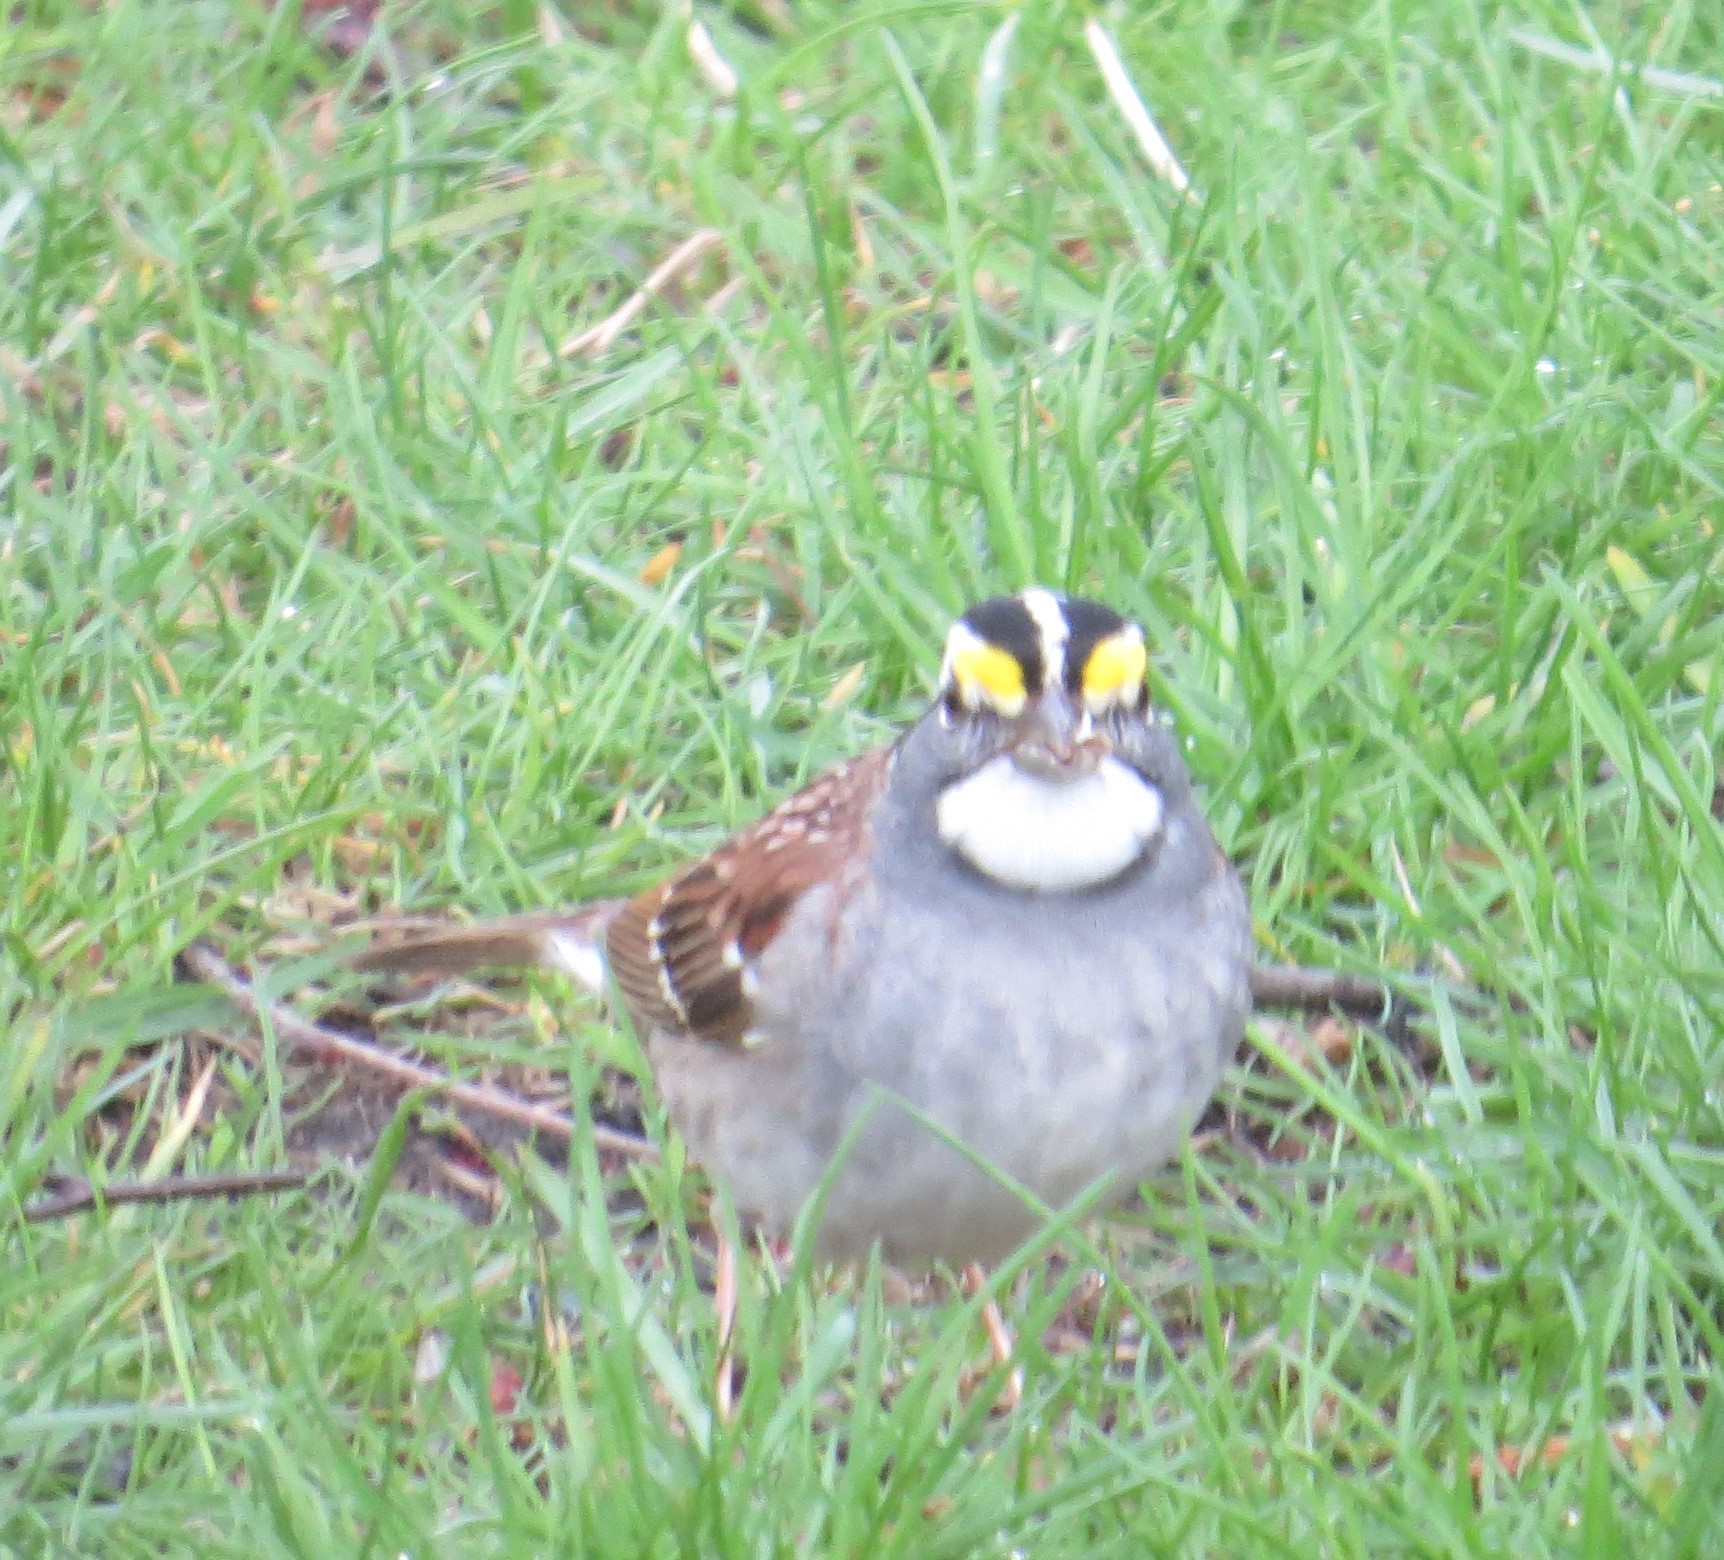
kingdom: Animalia
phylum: Chordata
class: Aves
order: Passeriformes
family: Passerellidae
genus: Zonotrichia
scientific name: Zonotrichia albicollis
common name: White-throated sparrow
